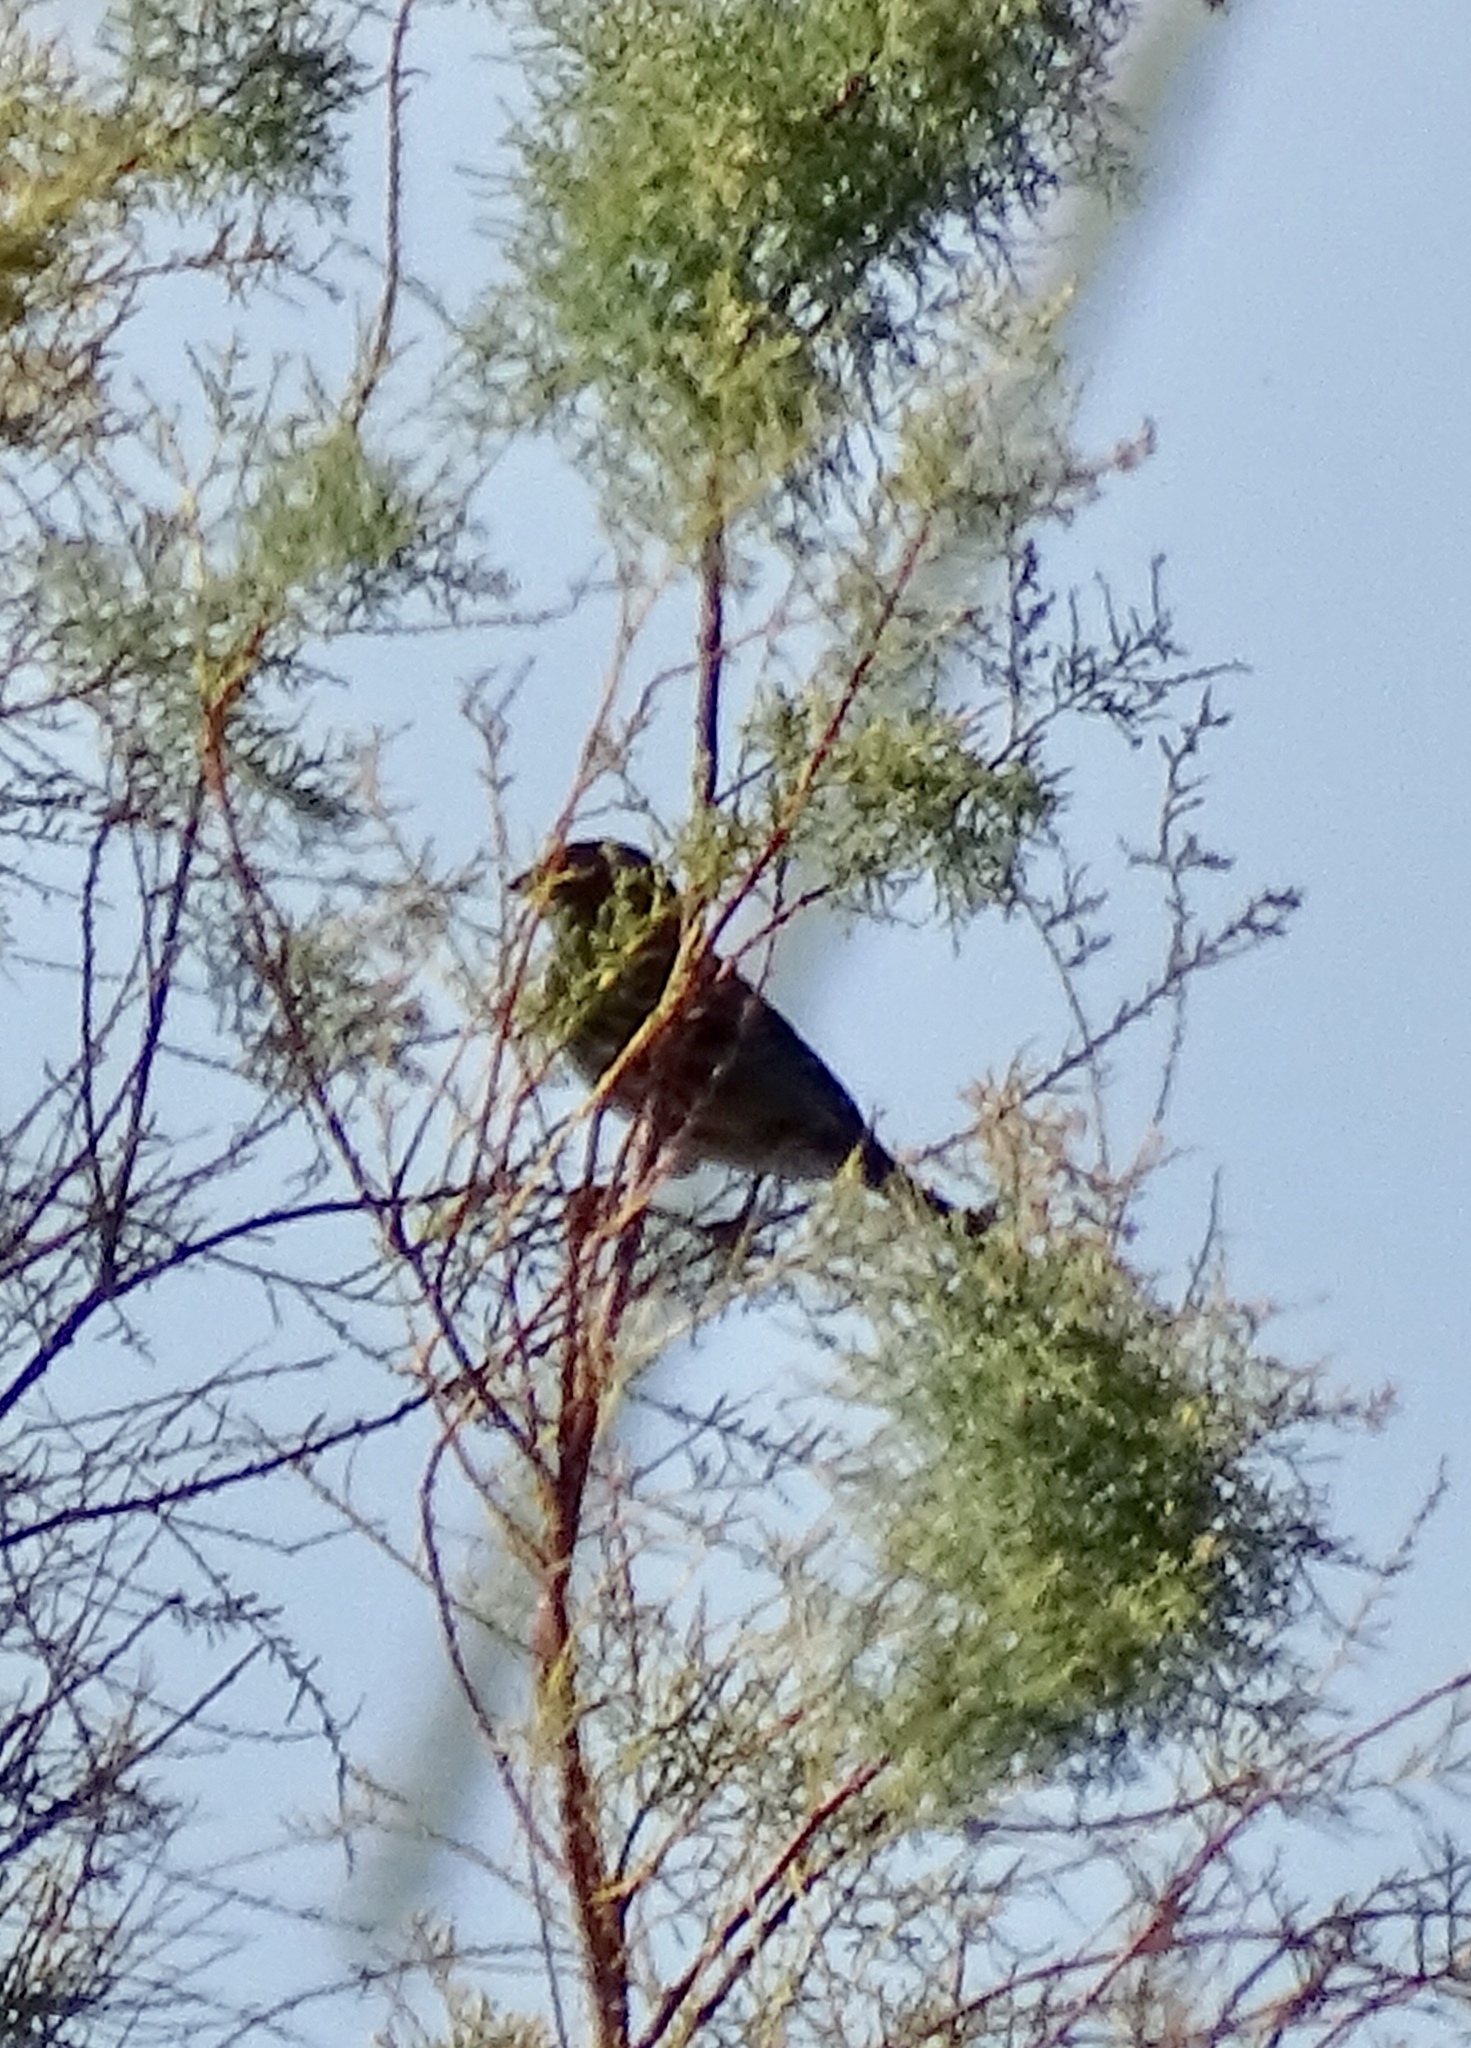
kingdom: Animalia
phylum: Chordata
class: Aves
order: Passeriformes
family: Fringillidae
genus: Haemorhous
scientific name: Haemorhous mexicanus
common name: House finch
